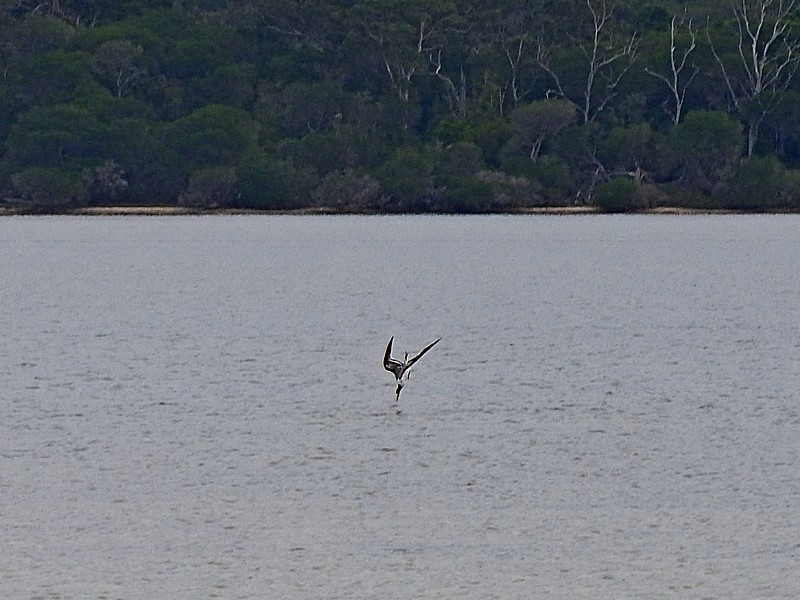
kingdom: Animalia
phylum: Chordata
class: Aves
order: Charadriiformes
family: Laridae
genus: Thalasseus
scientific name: Thalasseus bergii
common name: Greater crested tern
